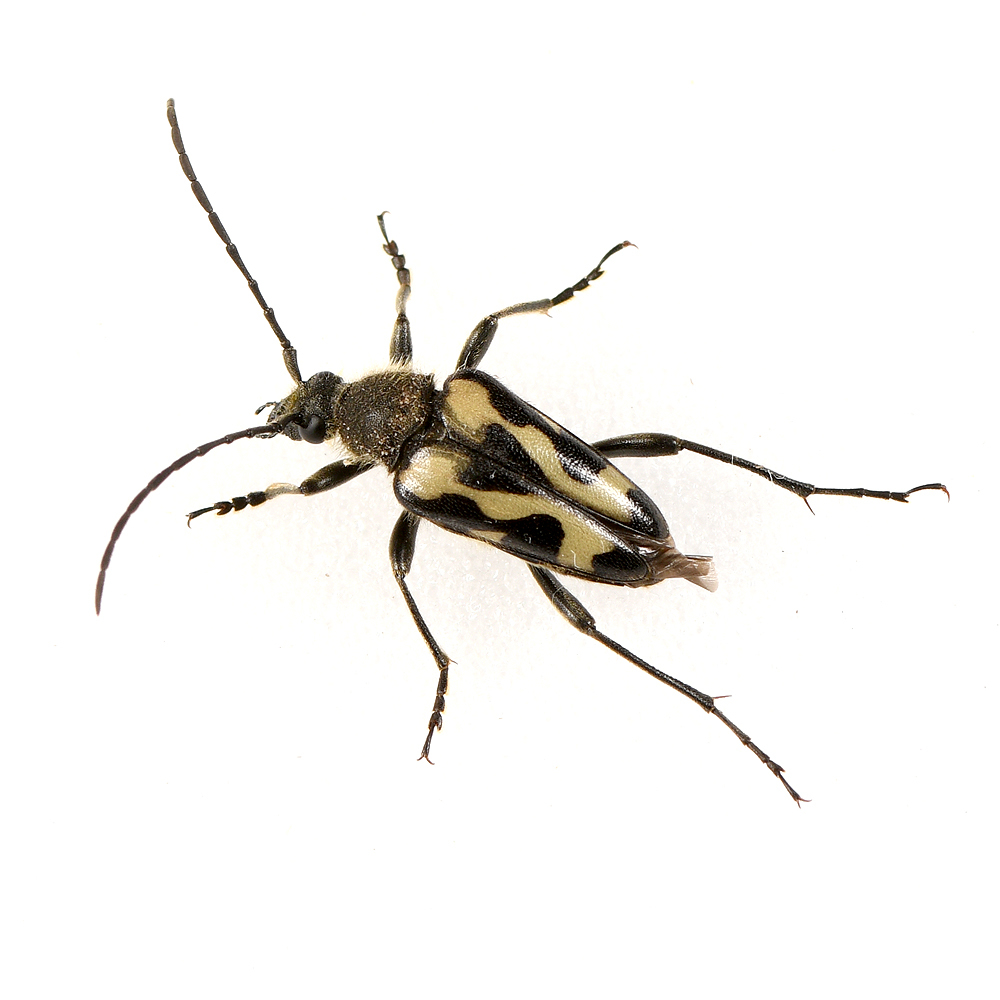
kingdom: Animalia
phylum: Arthropoda
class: Insecta
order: Coleoptera
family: Cerambycidae
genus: Judolia
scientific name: Judolia instabilis
